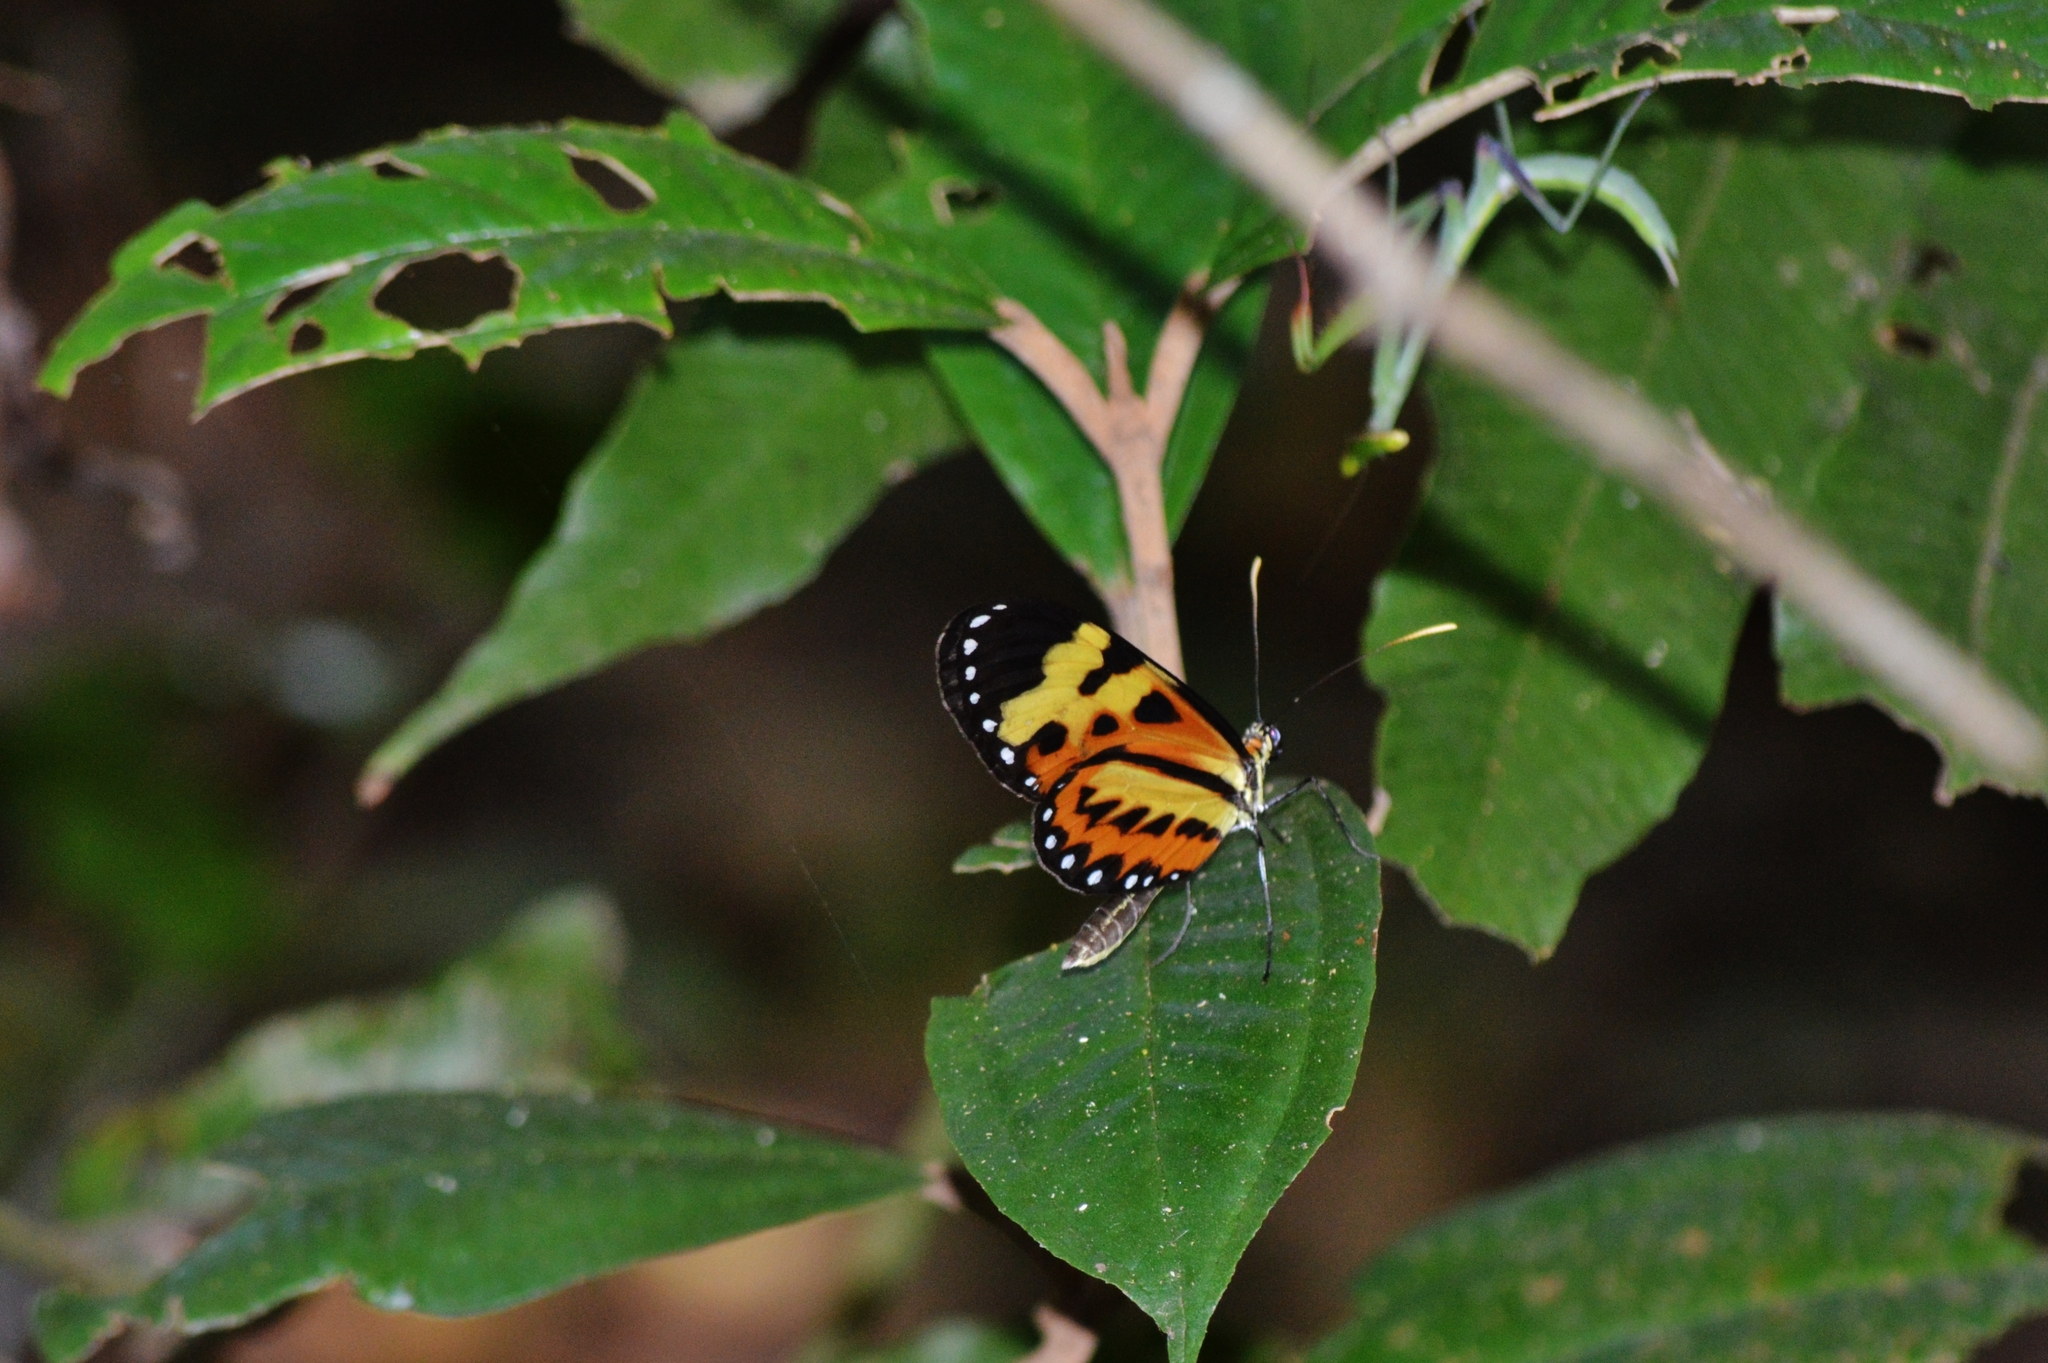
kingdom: Animalia
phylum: Arthropoda
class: Insecta
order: Lepidoptera
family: Nymphalidae
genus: Mechanitis
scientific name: Mechanitis polymnia
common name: Disturbed tigerwing
